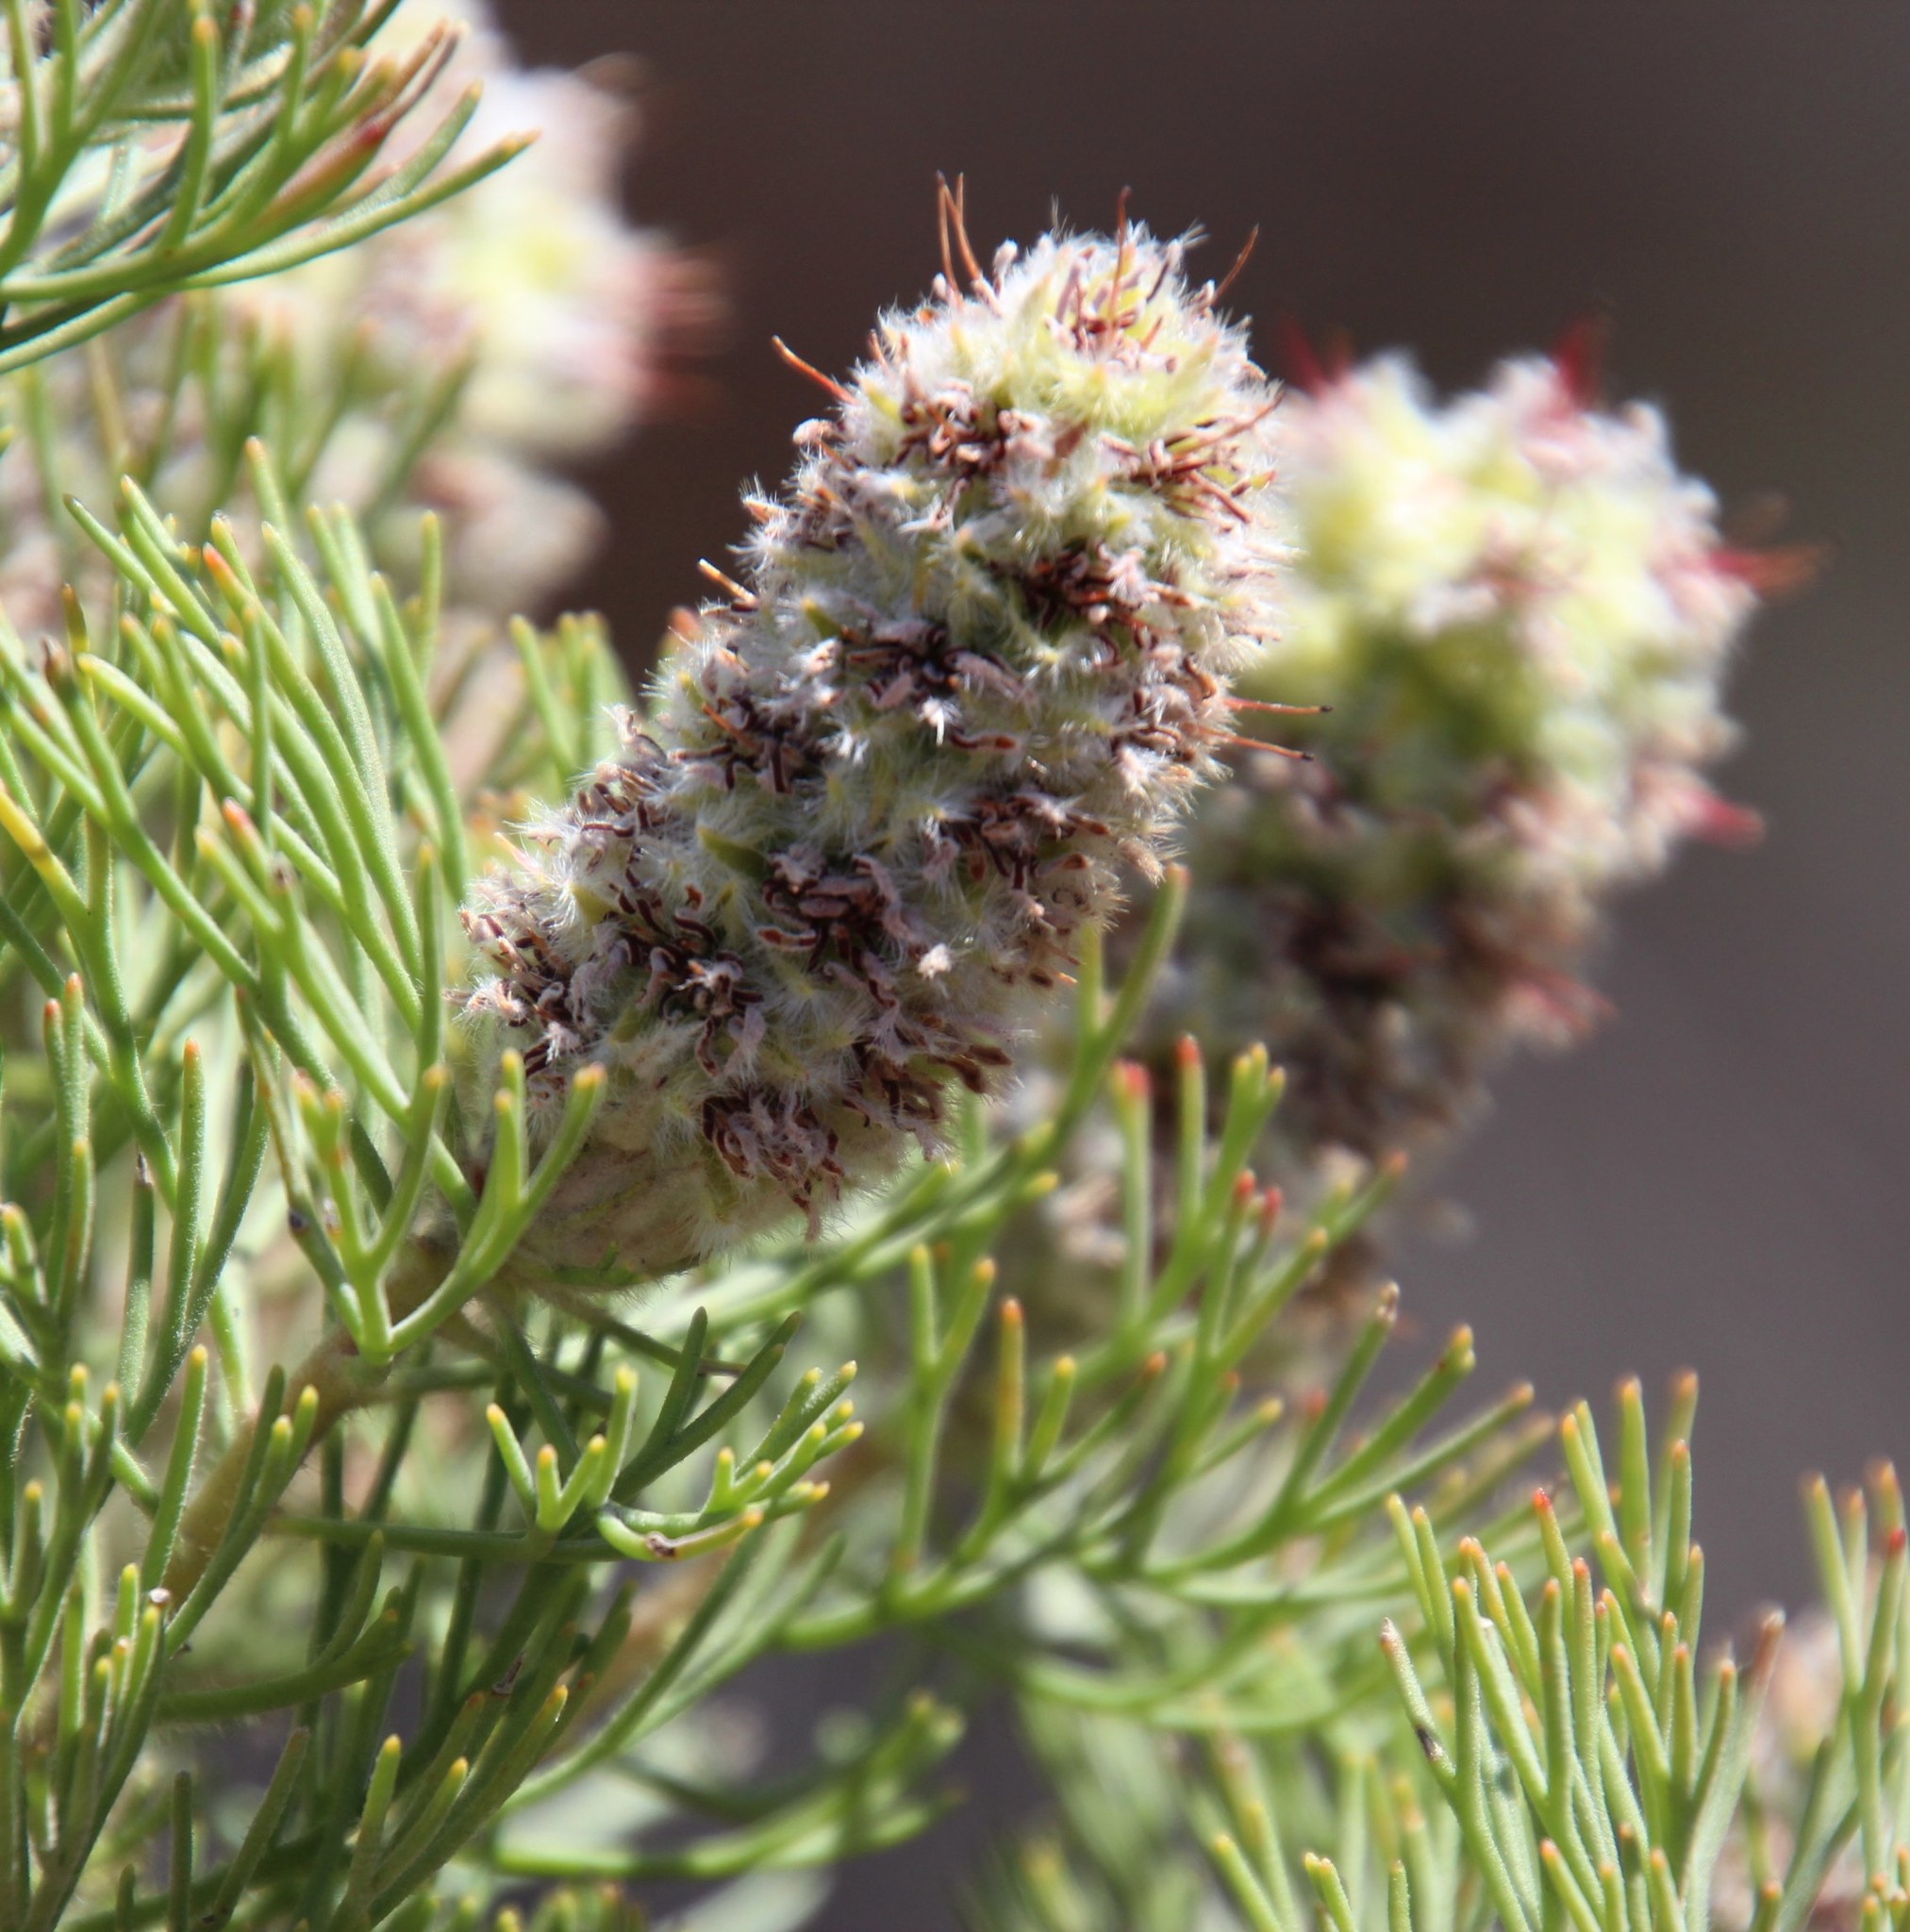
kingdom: Plantae
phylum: Tracheophyta
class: Magnoliopsida
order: Proteales
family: Proteaceae
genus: Paranomus
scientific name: Paranomus lagopus
